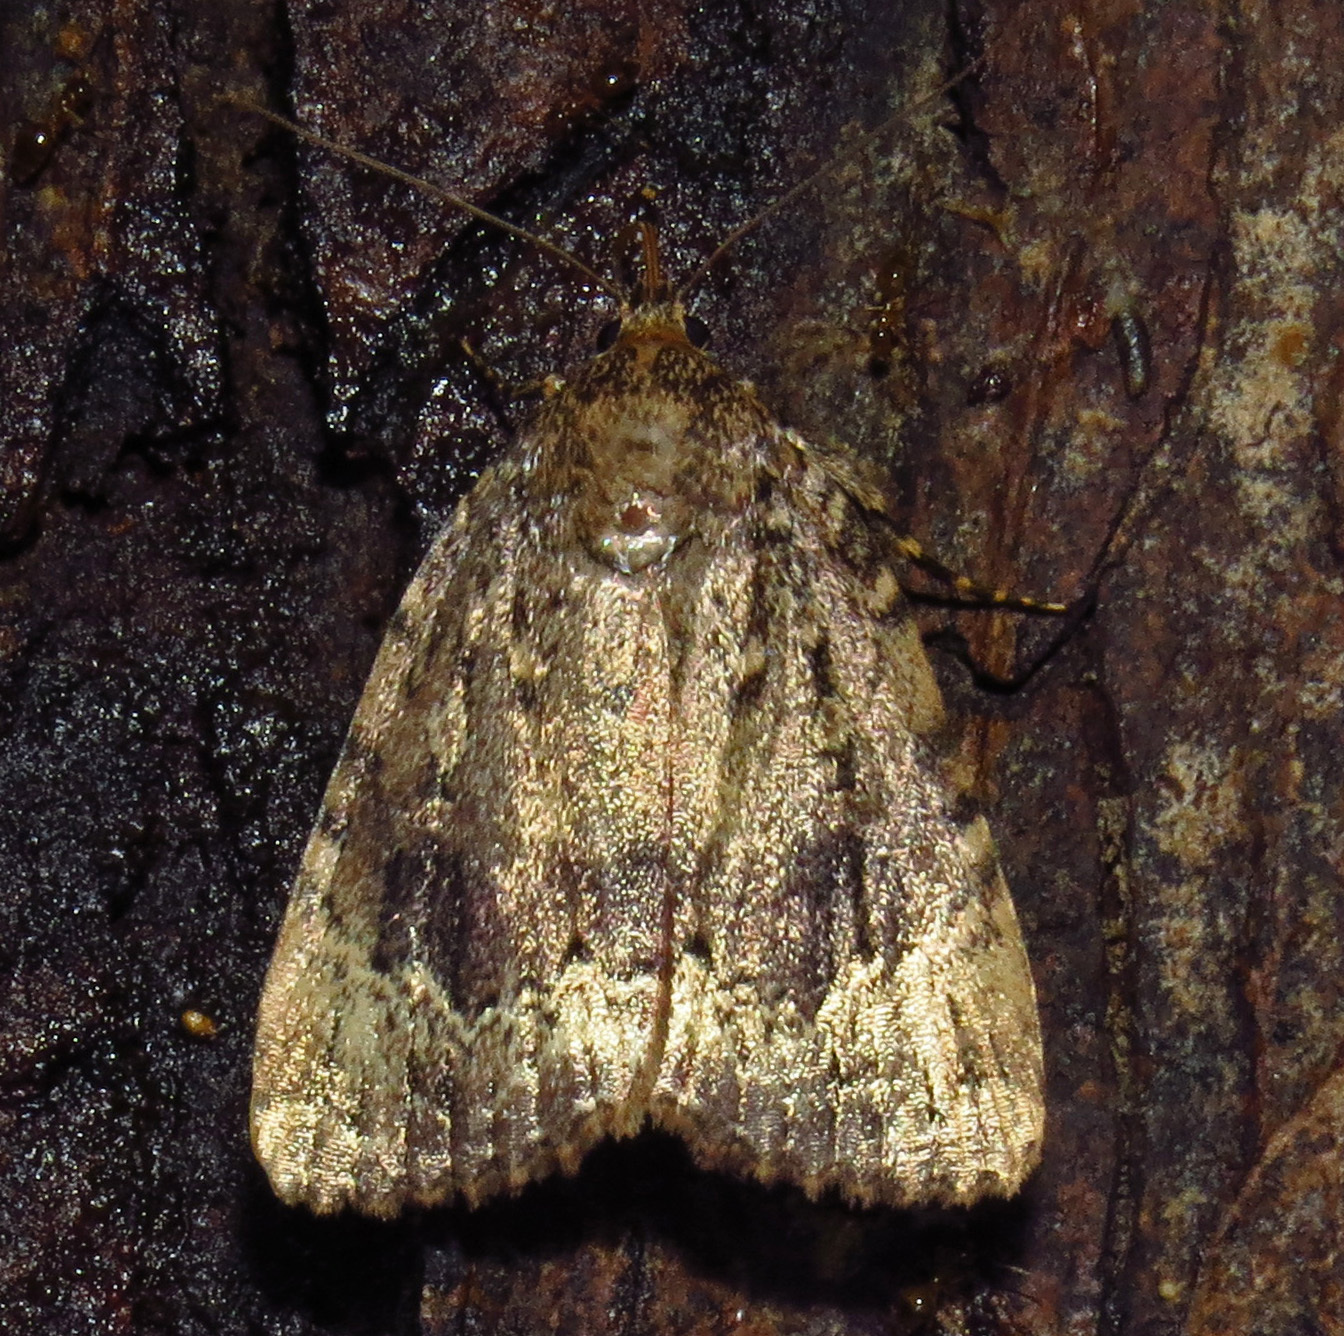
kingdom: Animalia
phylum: Arthropoda
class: Insecta
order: Lepidoptera
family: Noctuidae
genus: Amphipyra
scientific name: Amphipyra pyramidoides
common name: American copper underwing
